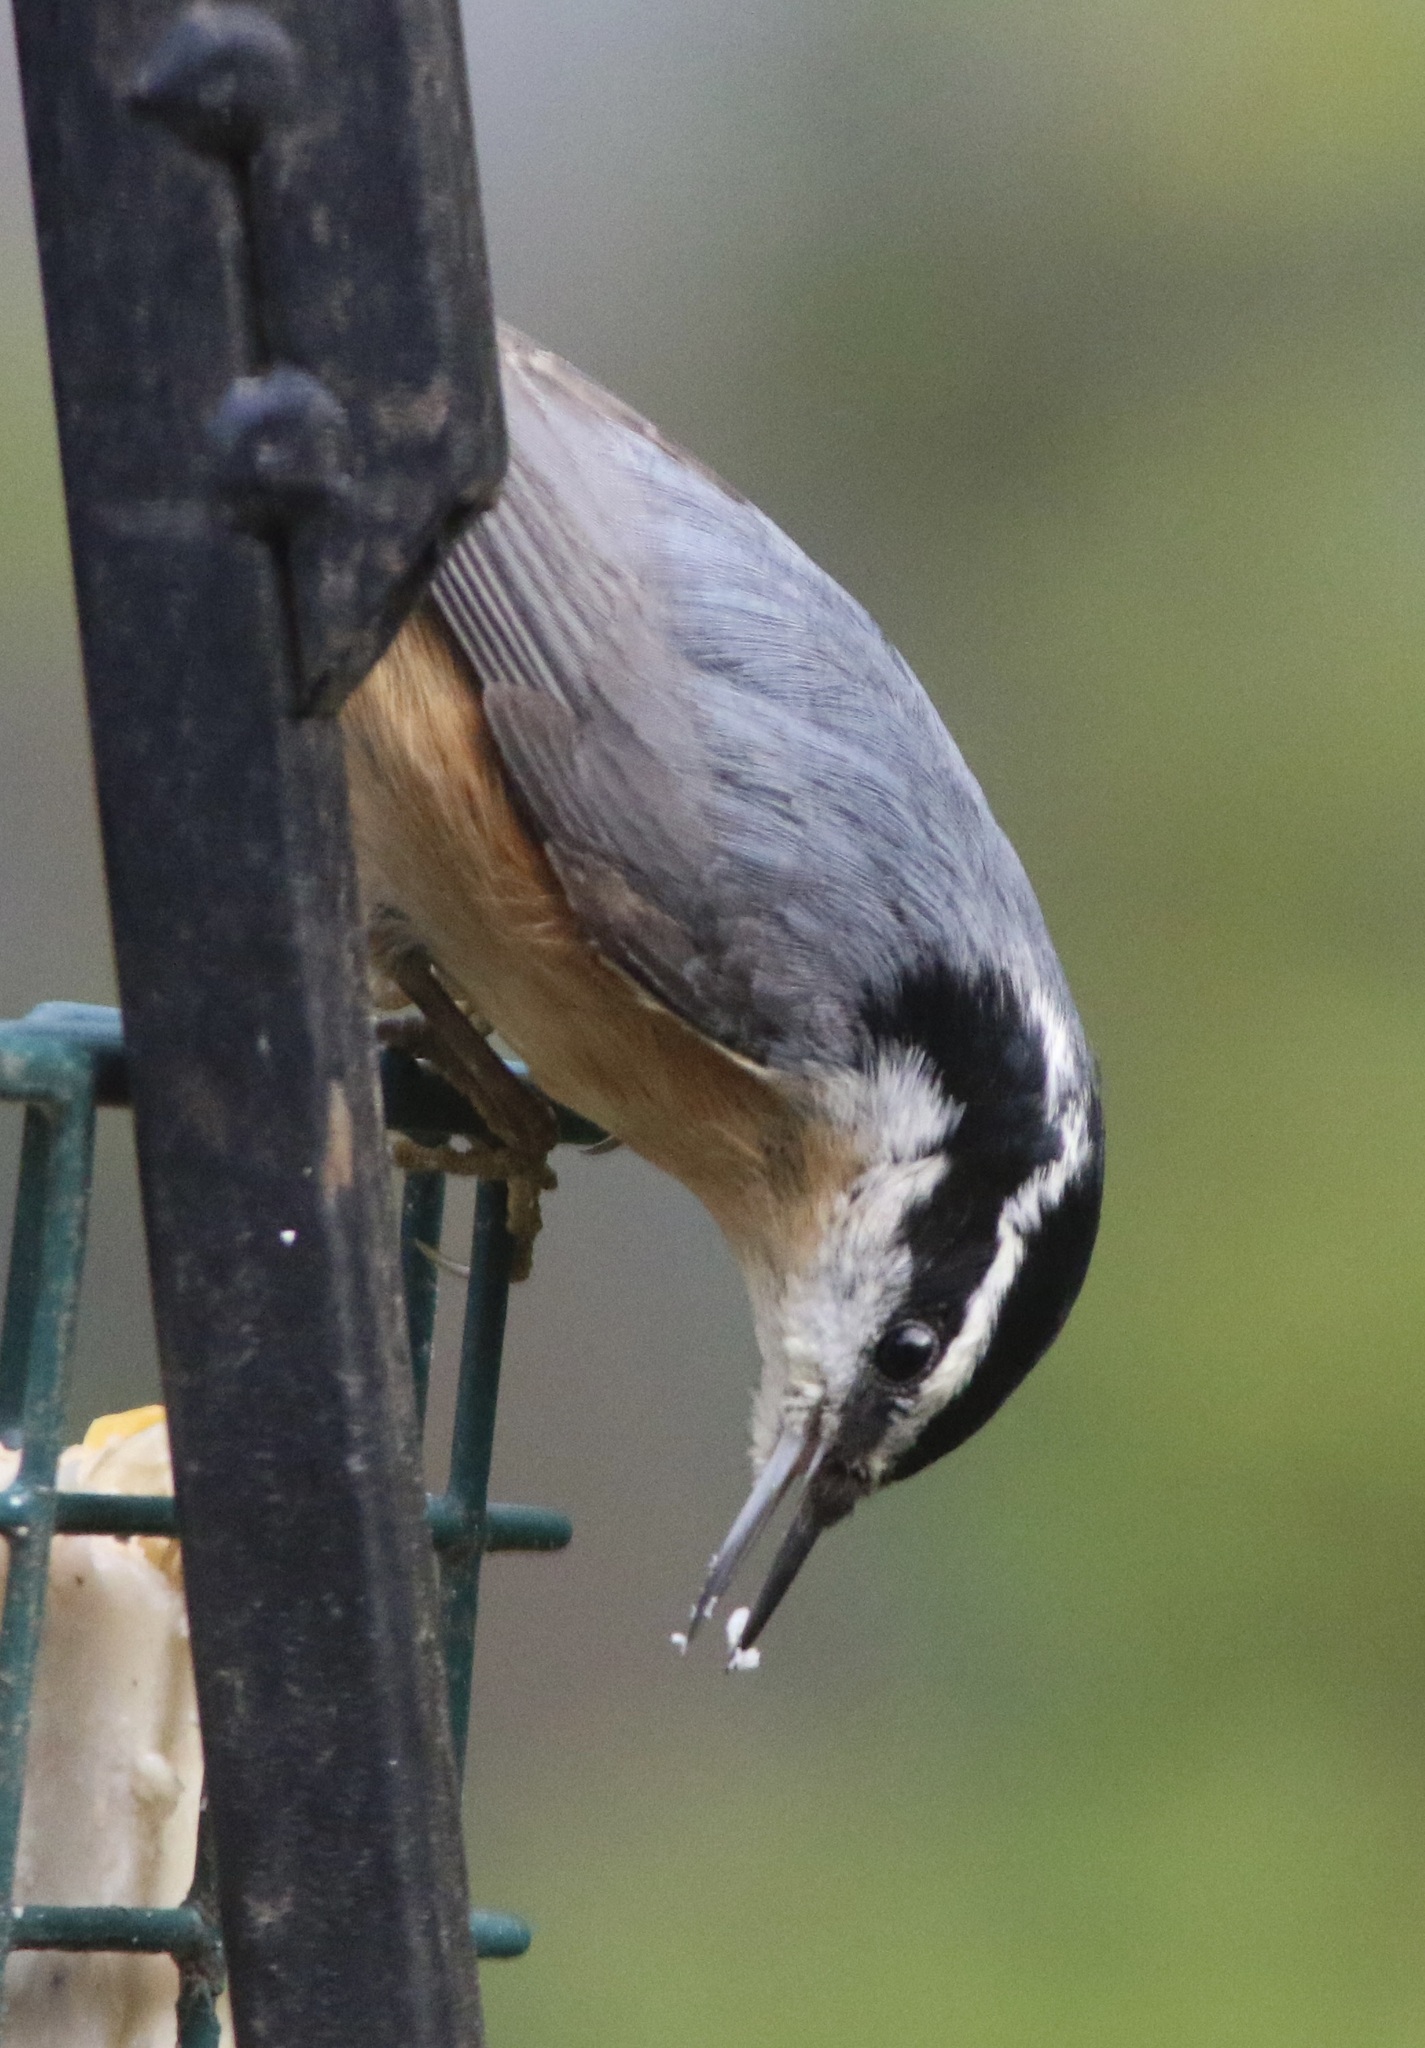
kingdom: Animalia
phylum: Chordata
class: Aves
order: Passeriformes
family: Sittidae
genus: Sitta
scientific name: Sitta canadensis
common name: Red-breasted nuthatch
